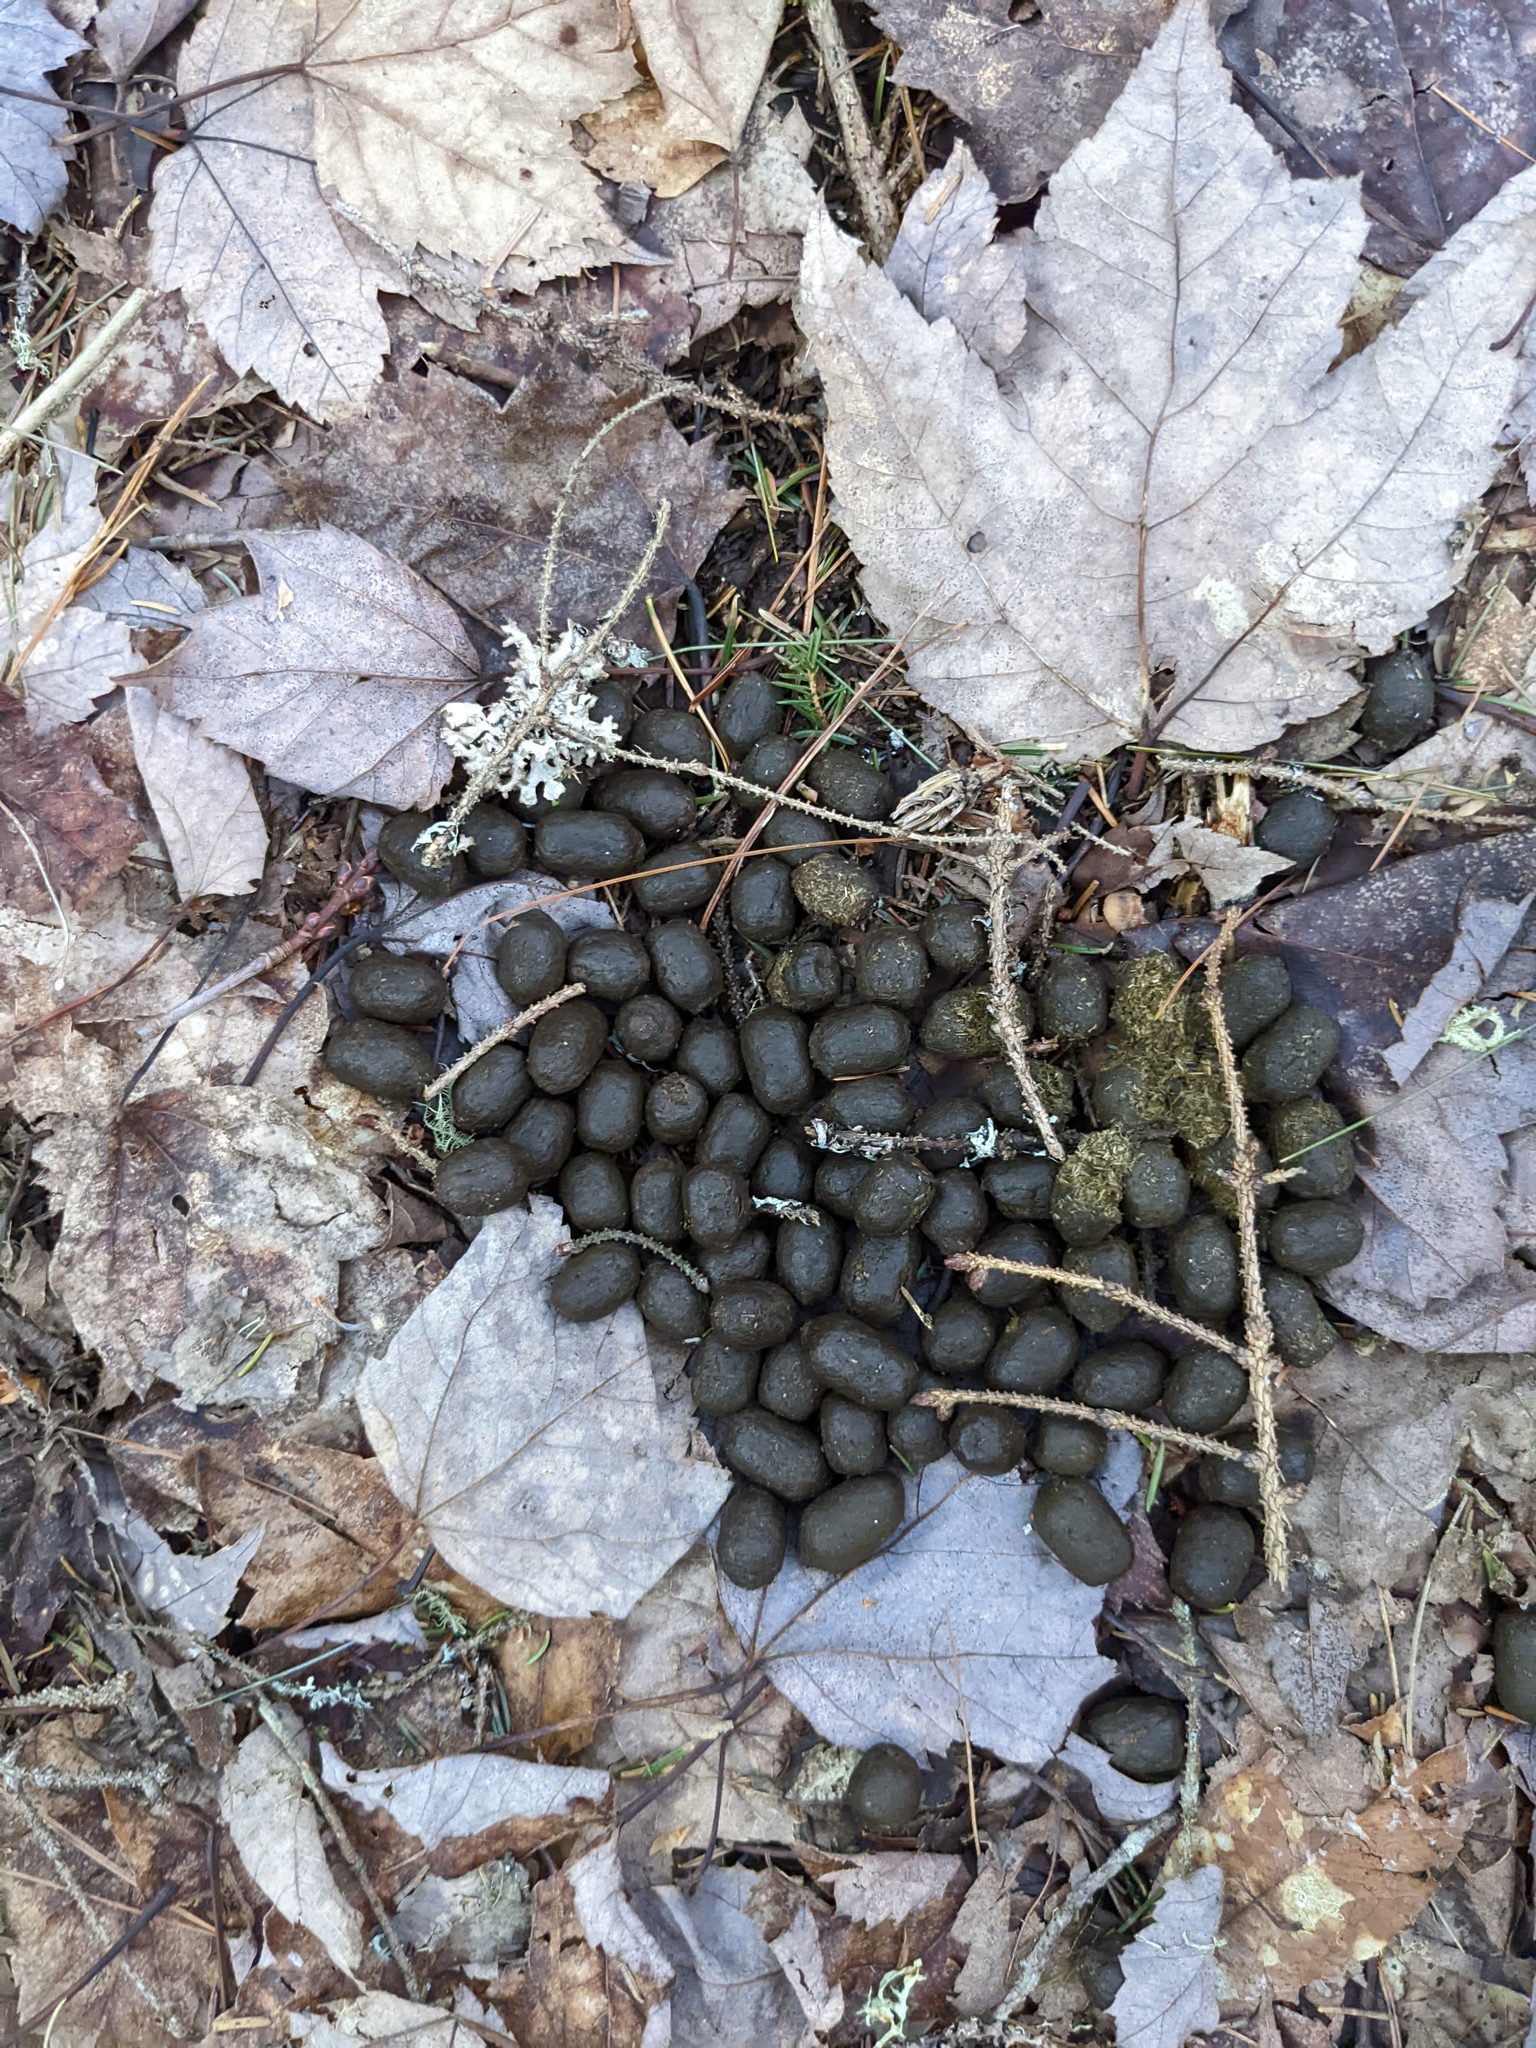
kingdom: Plantae
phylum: Tracheophyta
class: Magnoliopsida
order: Sapindales
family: Sapindaceae
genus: Acer
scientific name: Acer rubrum
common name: Red maple
